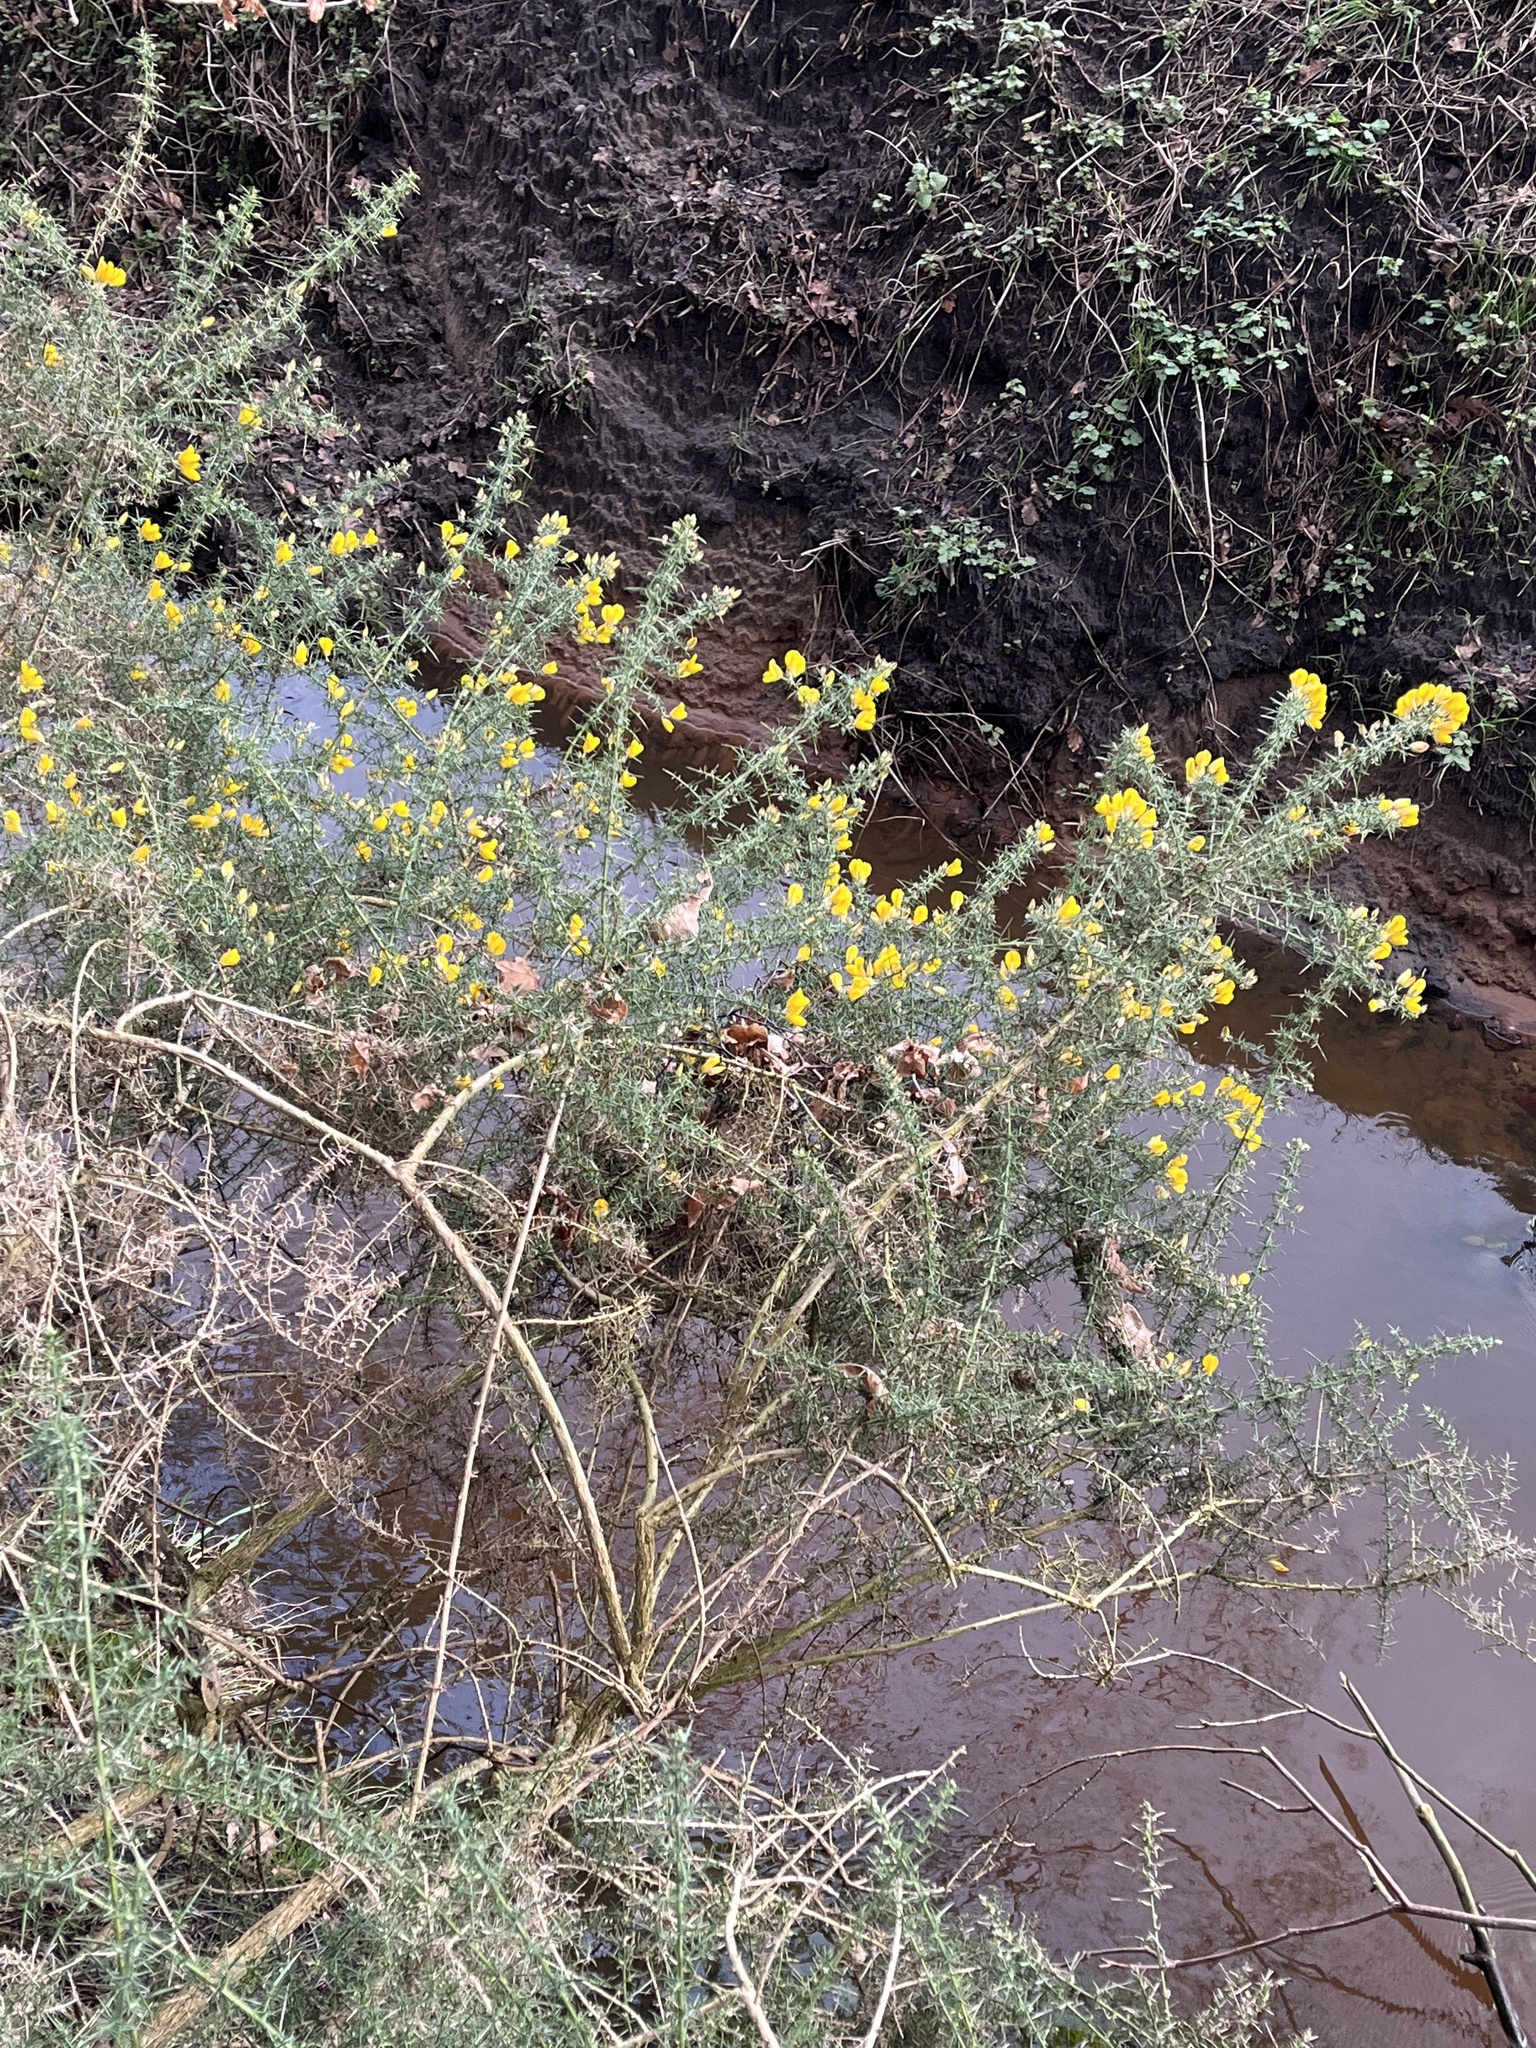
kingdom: Plantae
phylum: Tracheophyta
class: Magnoliopsida
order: Fabales
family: Fabaceae
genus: Ulex
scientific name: Ulex europaeus
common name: Common gorse
